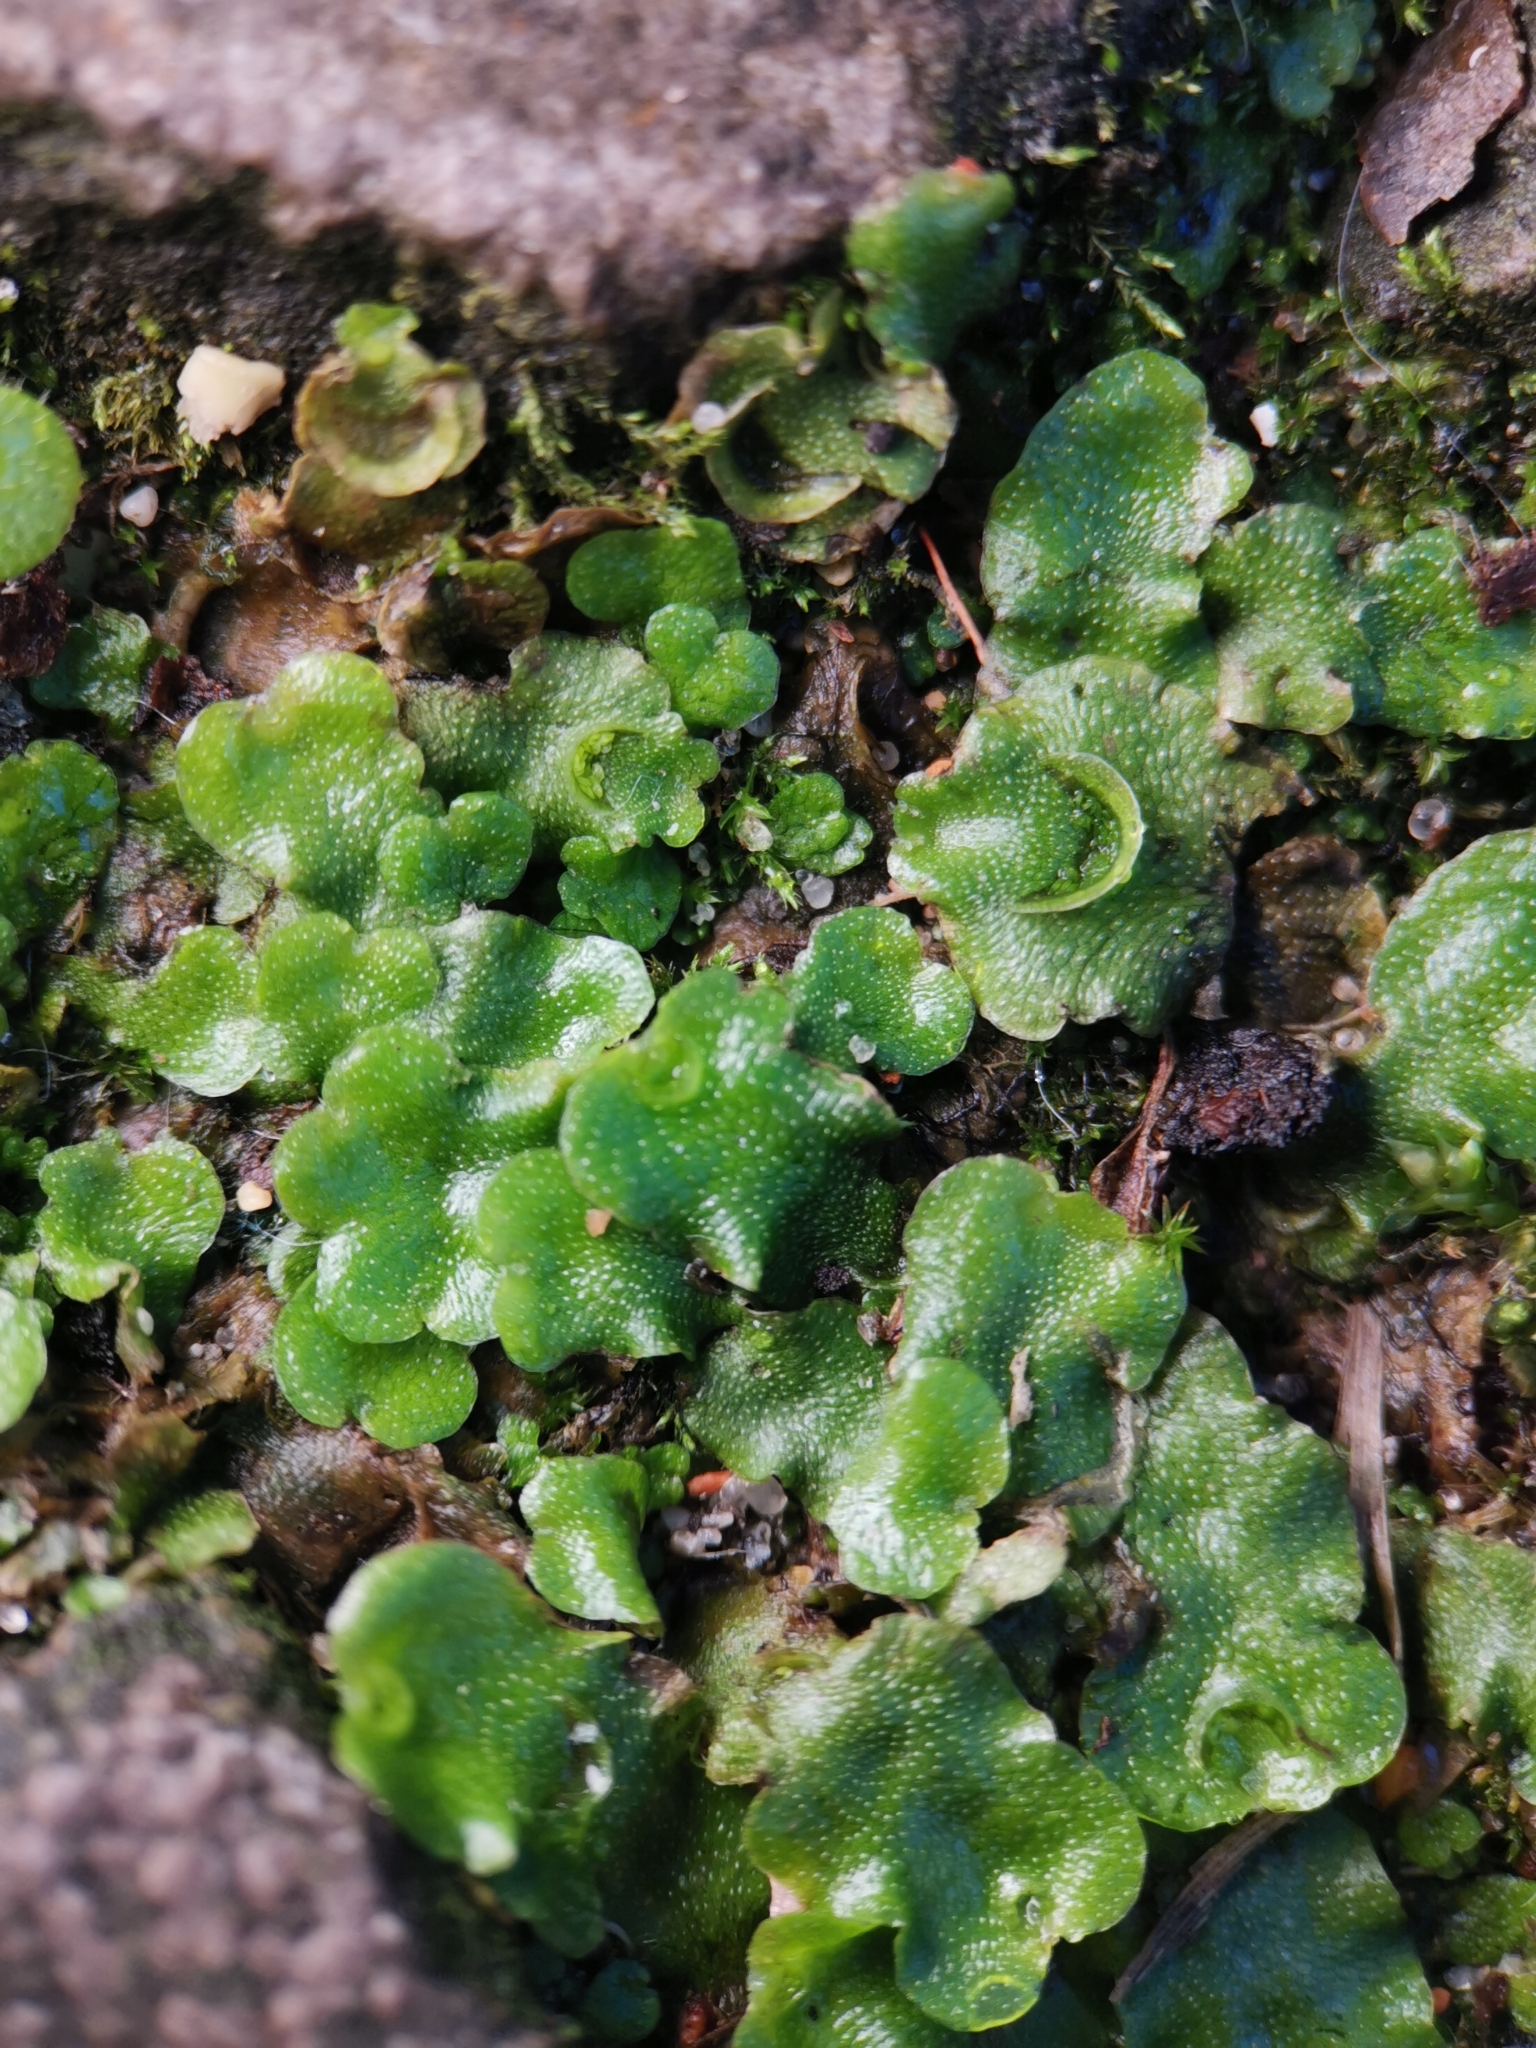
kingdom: Plantae
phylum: Marchantiophyta
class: Marchantiopsida
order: Lunulariales
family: Lunulariaceae
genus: Lunularia
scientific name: Lunularia cruciata
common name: Crescent-cup liverwort
